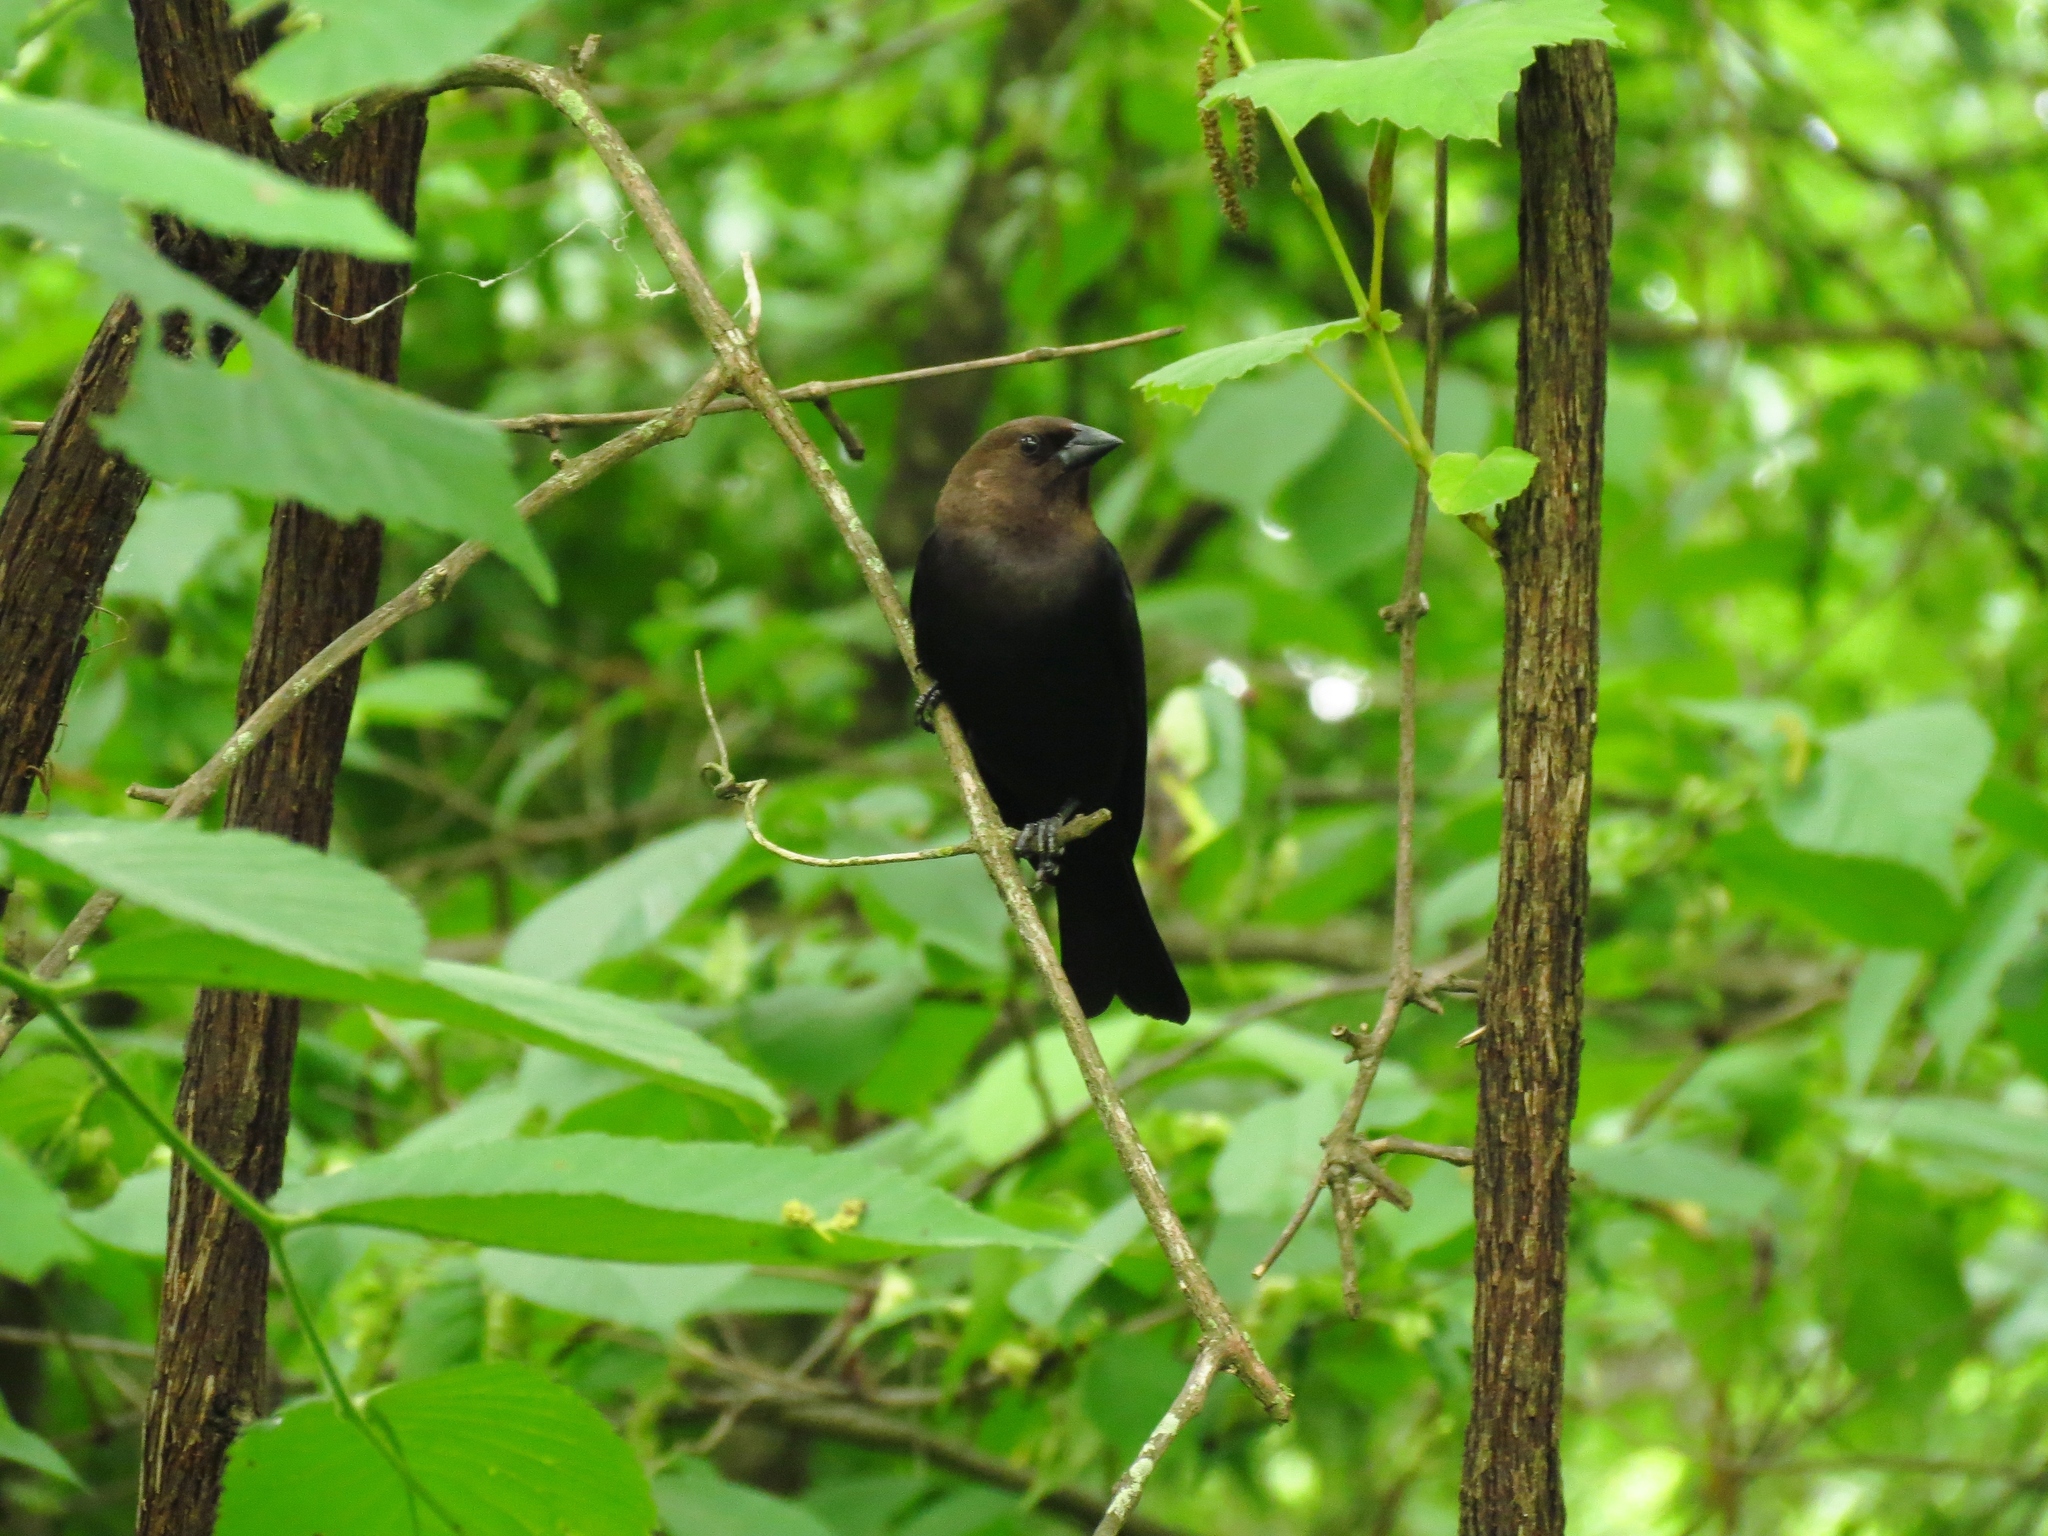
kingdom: Animalia
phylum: Chordata
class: Aves
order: Passeriformes
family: Icteridae
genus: Molothrus
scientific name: Molothrus ater
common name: Brown-headed cowbird
